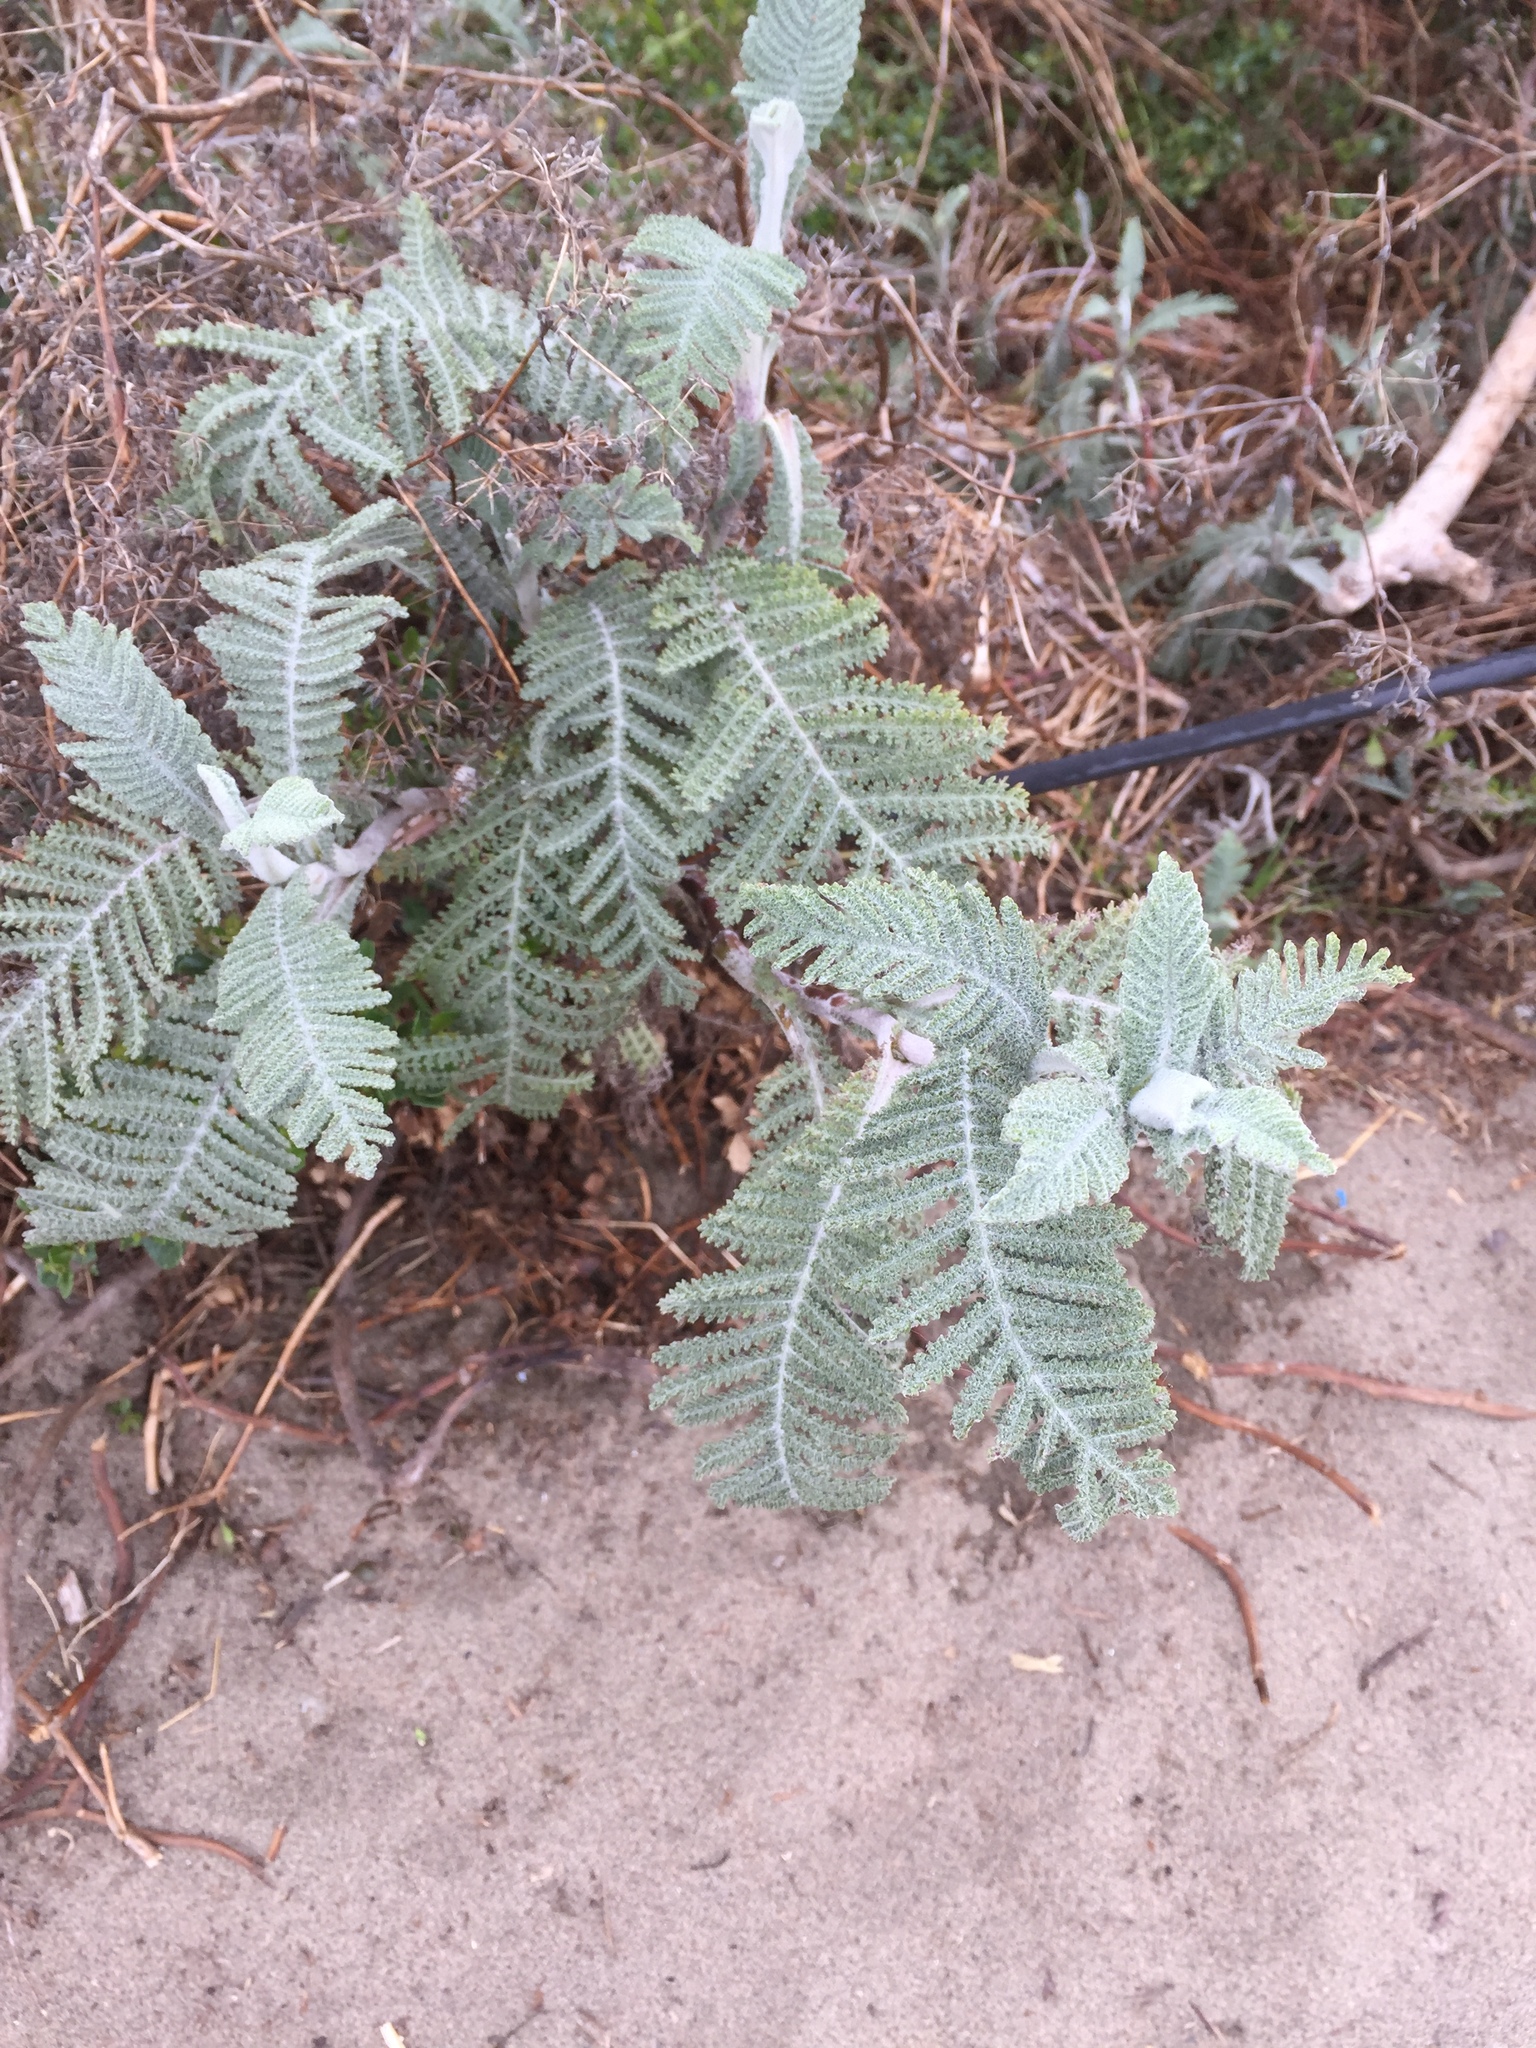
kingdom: Plantae
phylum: Tracheophyta
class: Magnoliopsida
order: Asterales
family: Asteraceae
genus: Tanacetum
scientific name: Tanacetum bipinnatum
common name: Dwarf tansy
